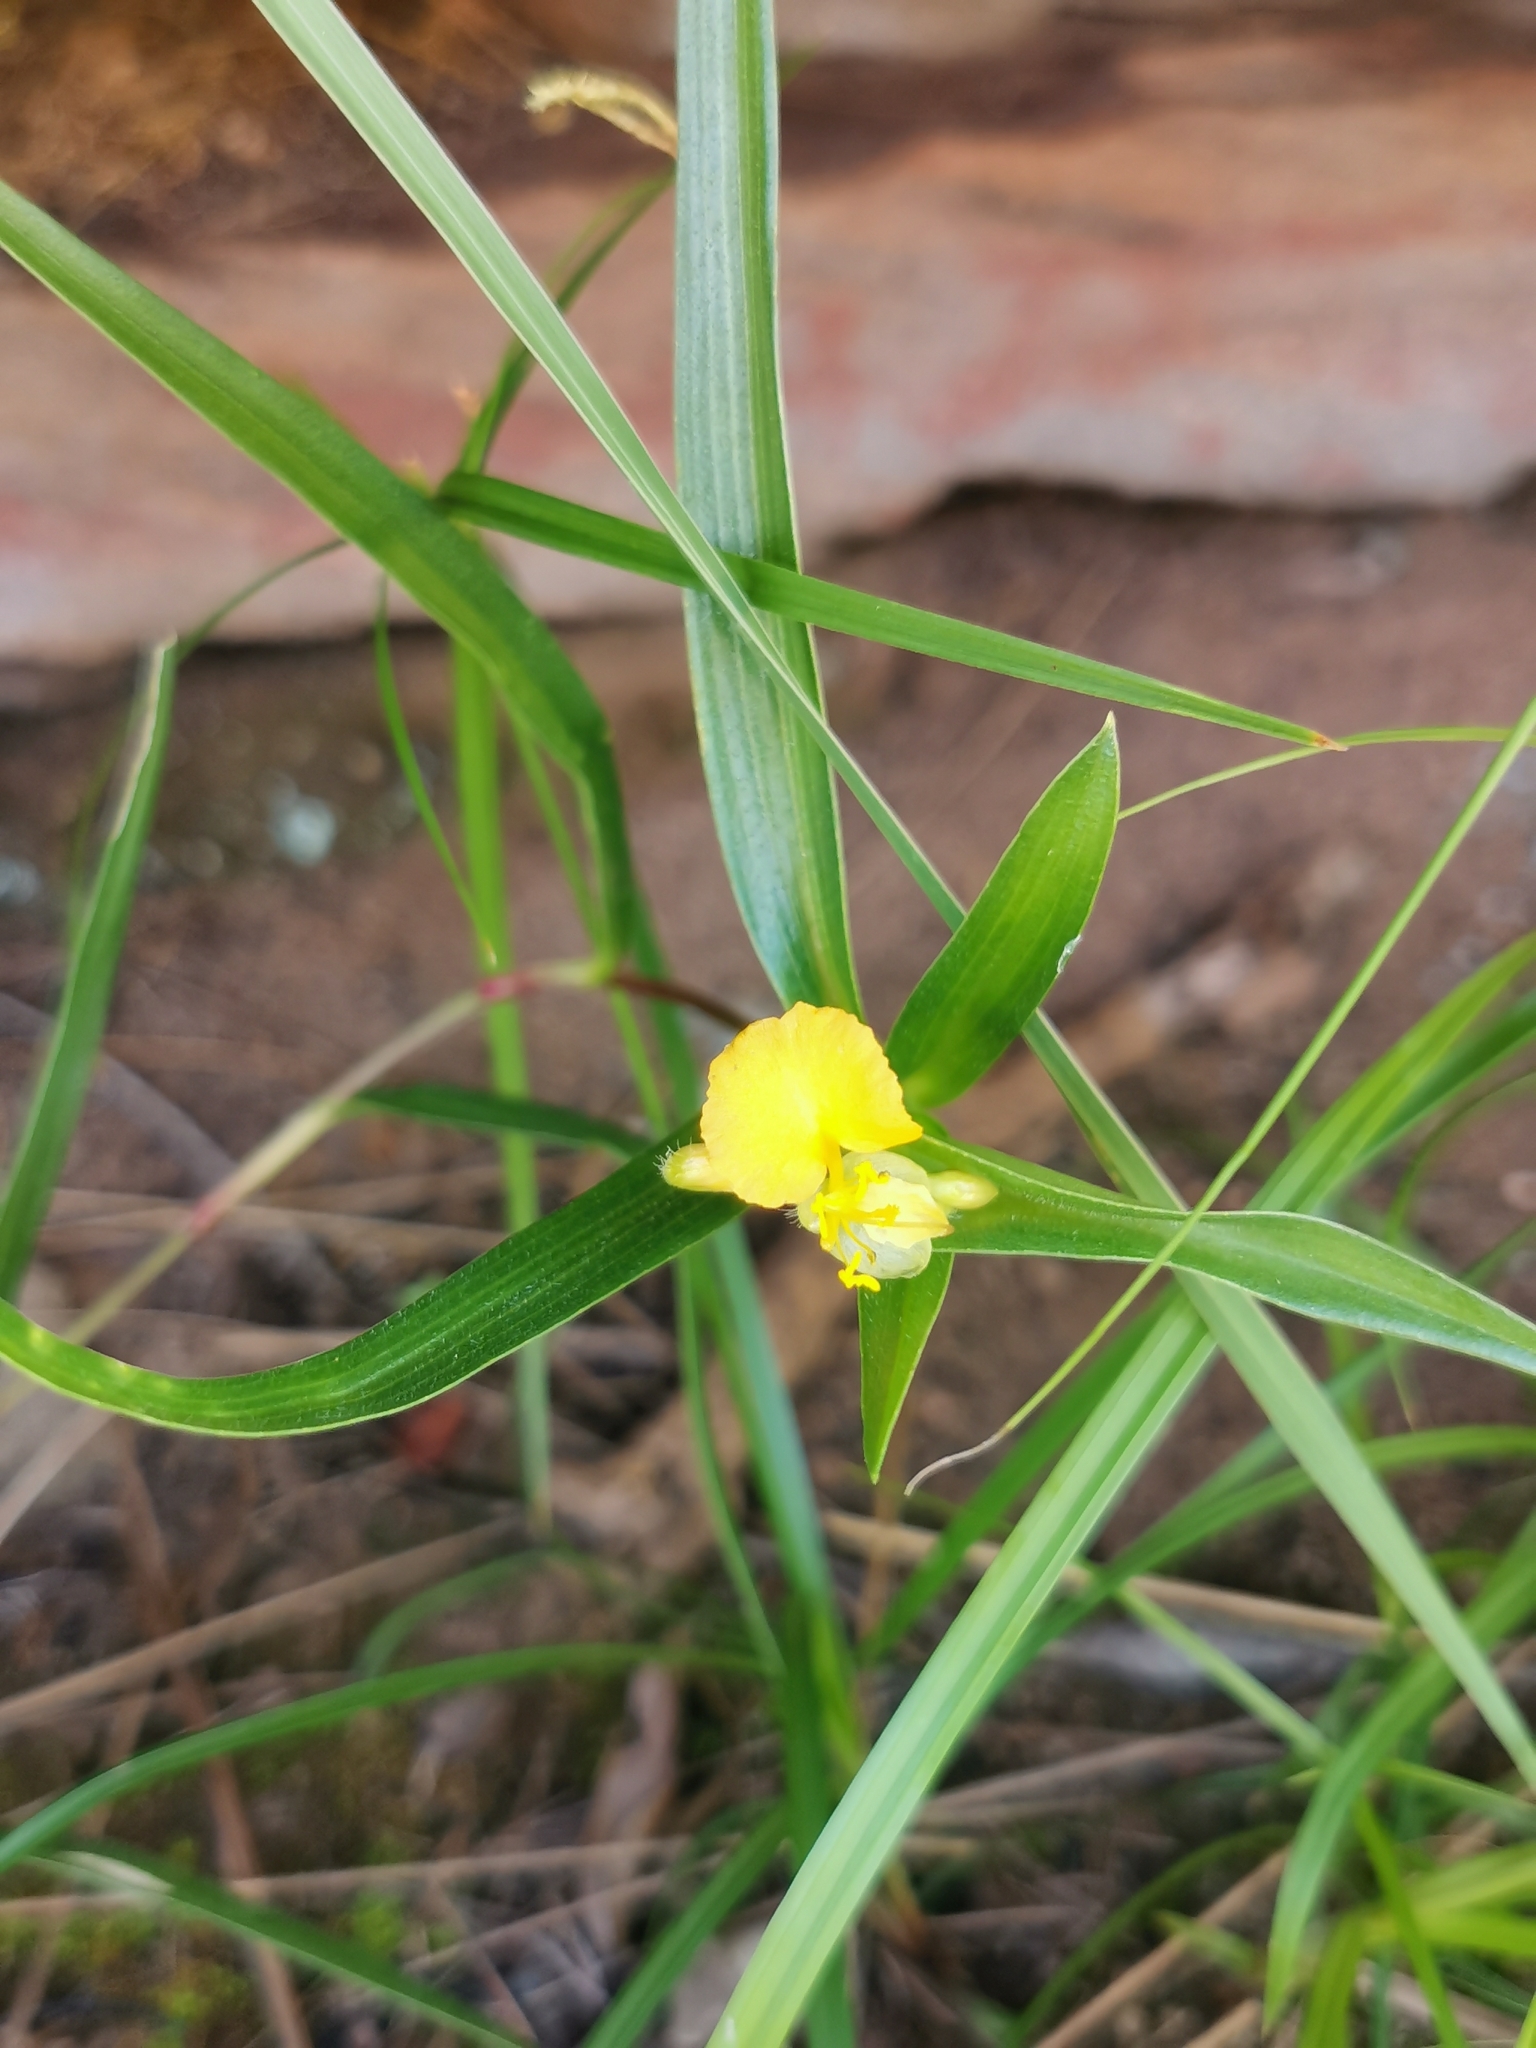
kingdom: Plantae
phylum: Tracheophyta
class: Liliopsida
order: Commelinales
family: Commelinaceae
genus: Commelina
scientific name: Commelina africana
